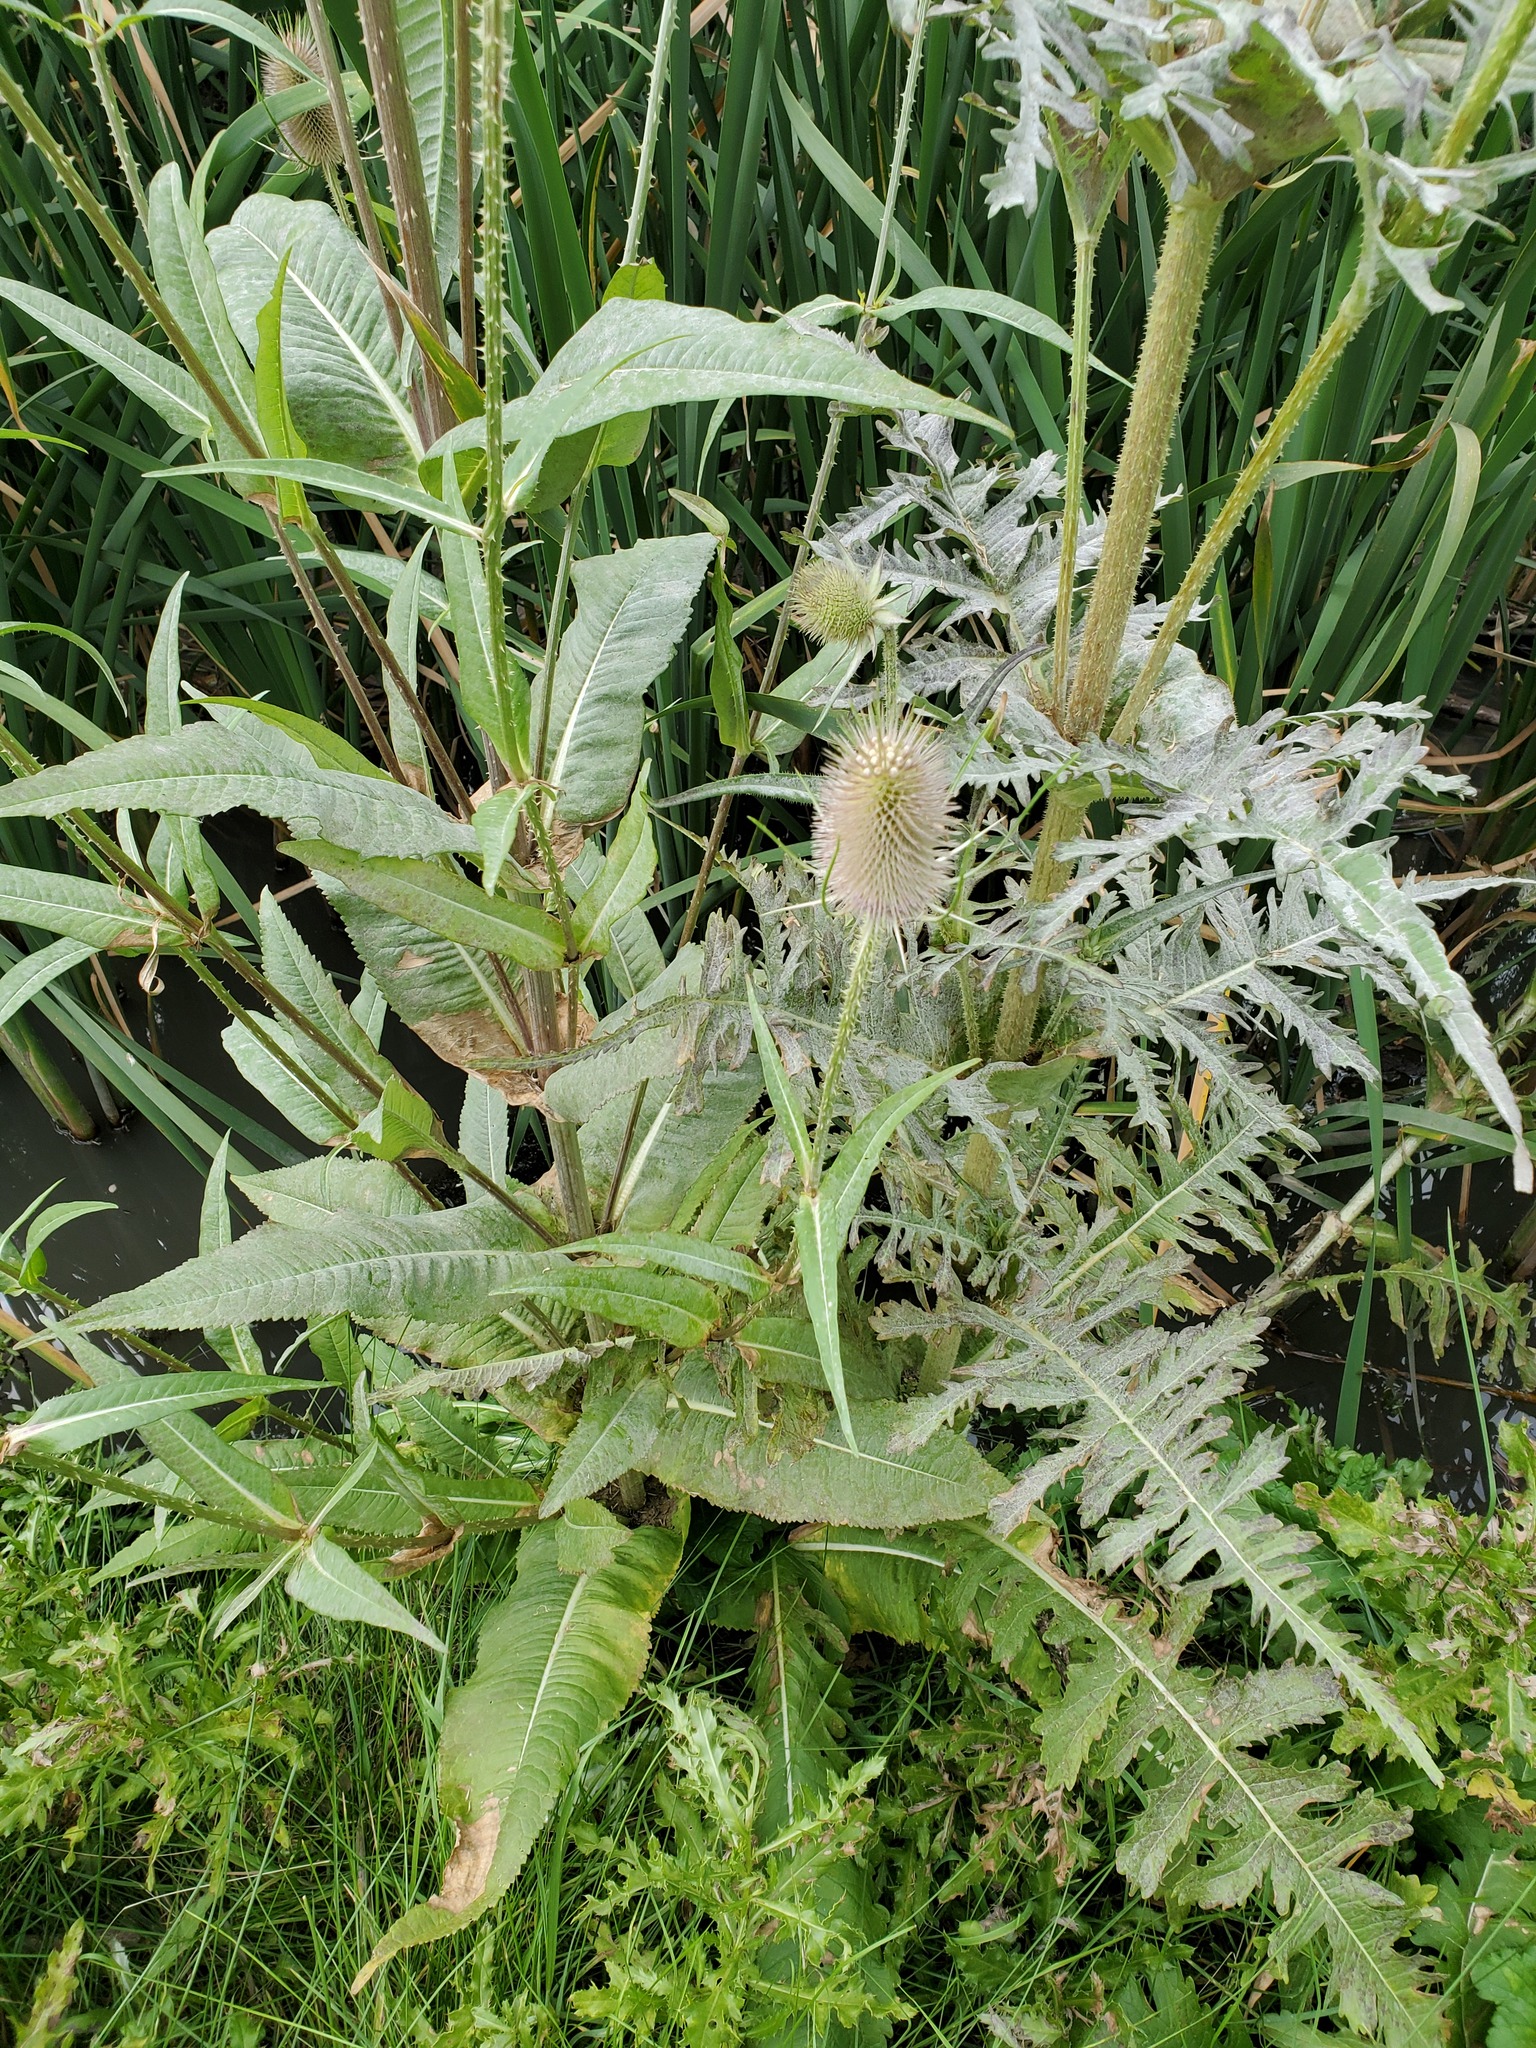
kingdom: Plantae
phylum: Tracheophyta
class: Magnoliopsida
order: Dipsacales
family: Caprifoliaceae
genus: Dipsacus
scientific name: Dipsacus laciniatus
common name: Cut-leaved teasel
